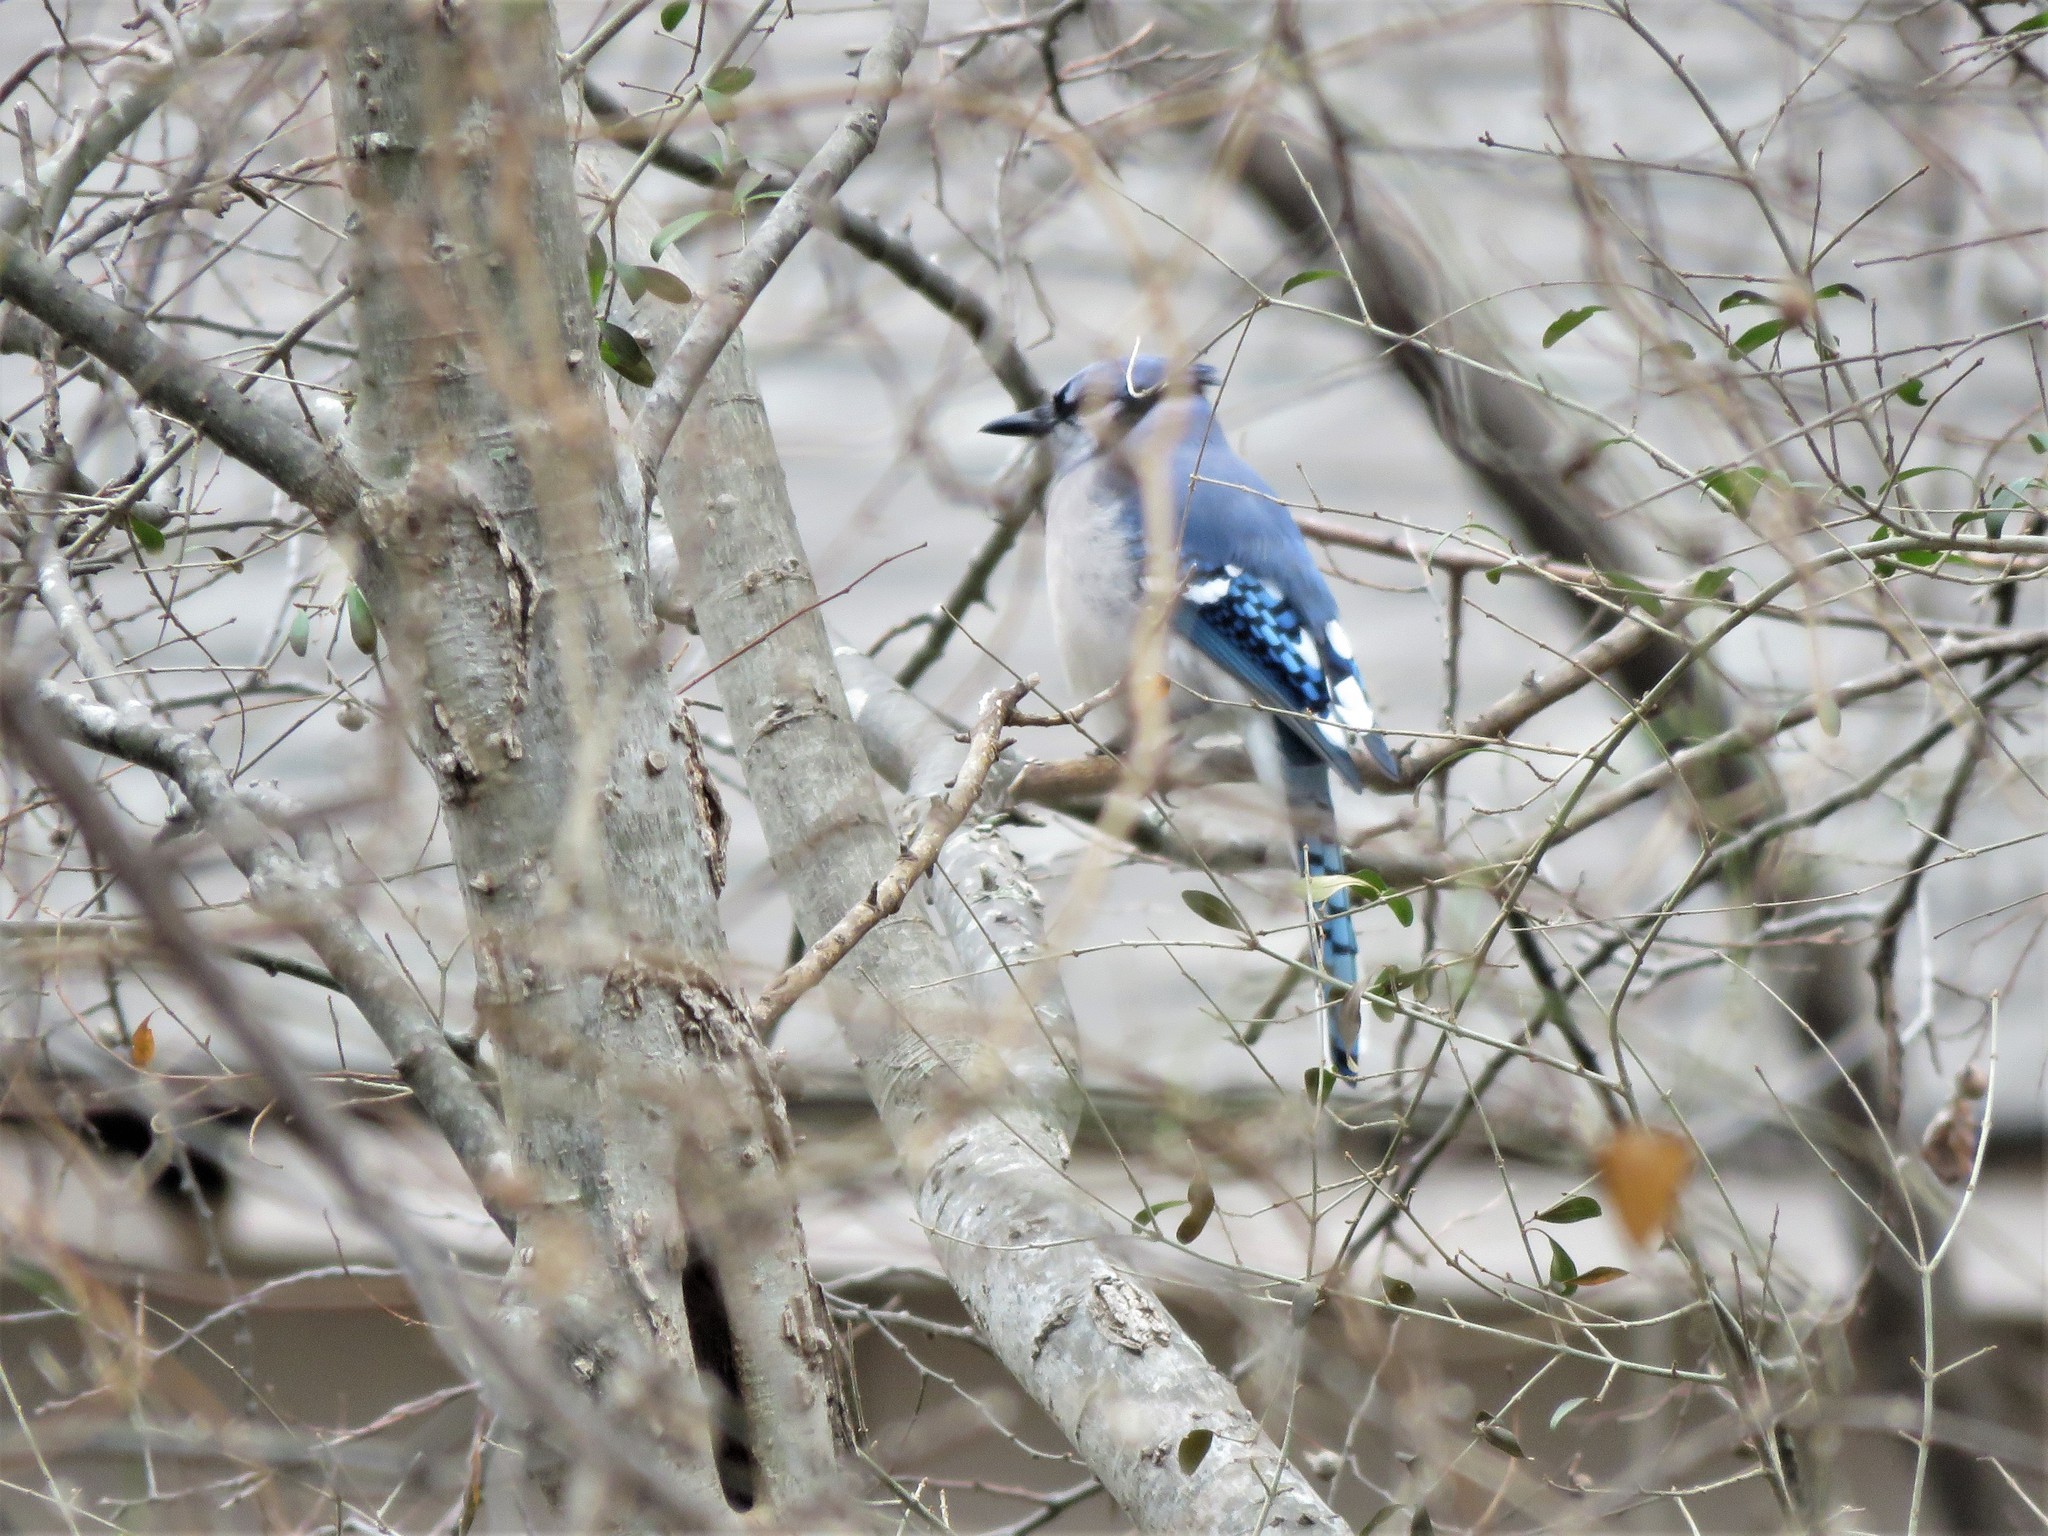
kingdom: Animalia
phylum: Chordata
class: Aves
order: Passeriformes
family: Corvidae
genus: Cyanocitta
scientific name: Cyanocitta cristata
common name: Blue jay
